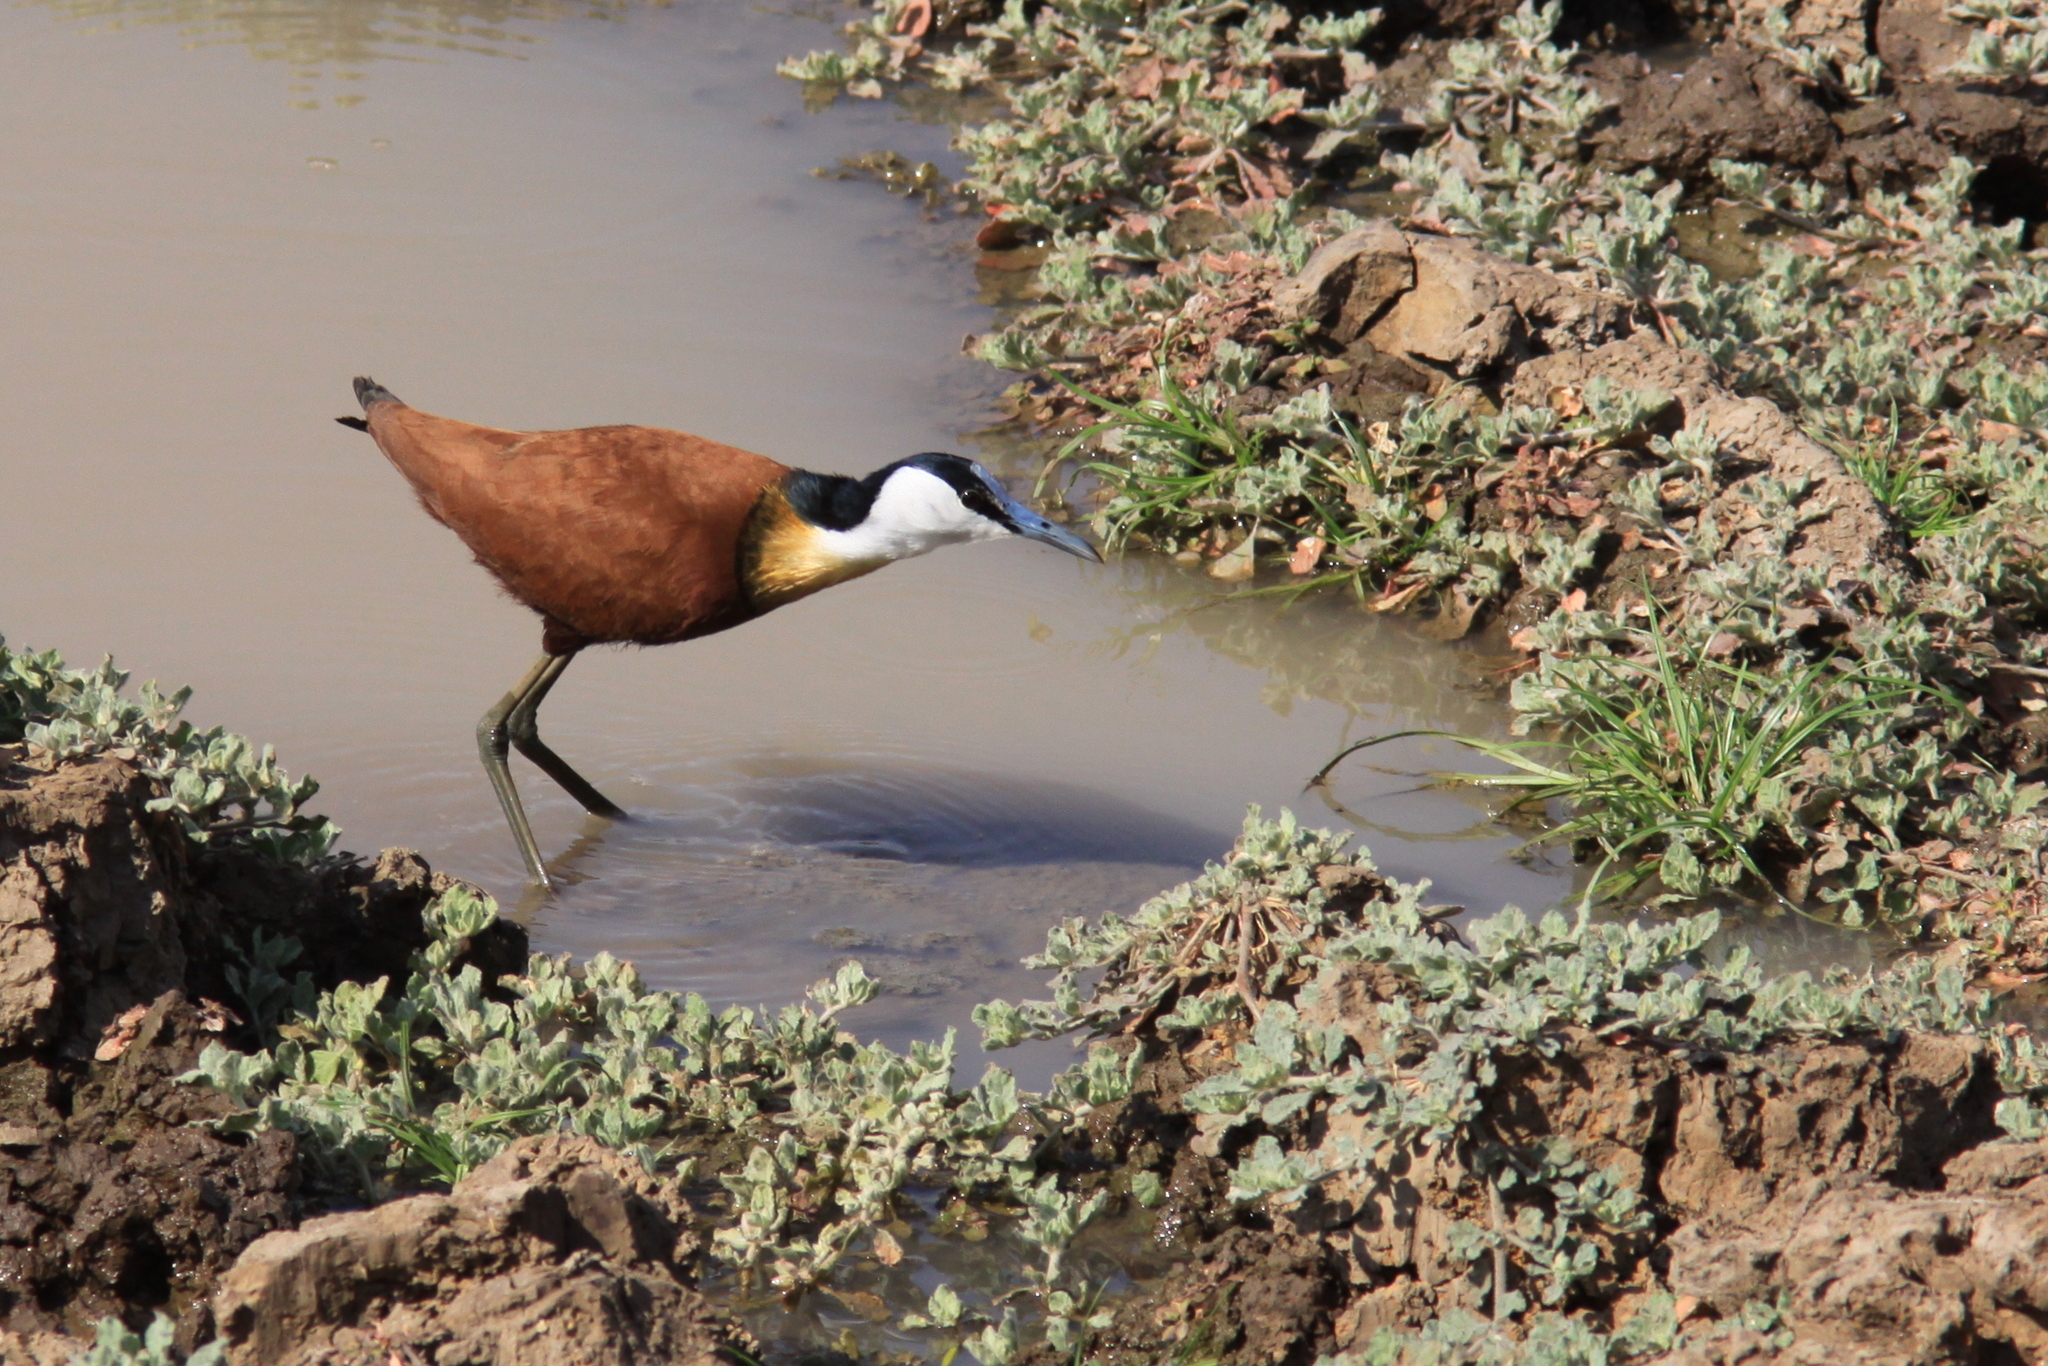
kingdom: Animalia
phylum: Chordata
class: Aves
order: Charadriiformes
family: Jacanidae
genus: Actophilornis
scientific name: Actophilornis africanus
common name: African jacana
